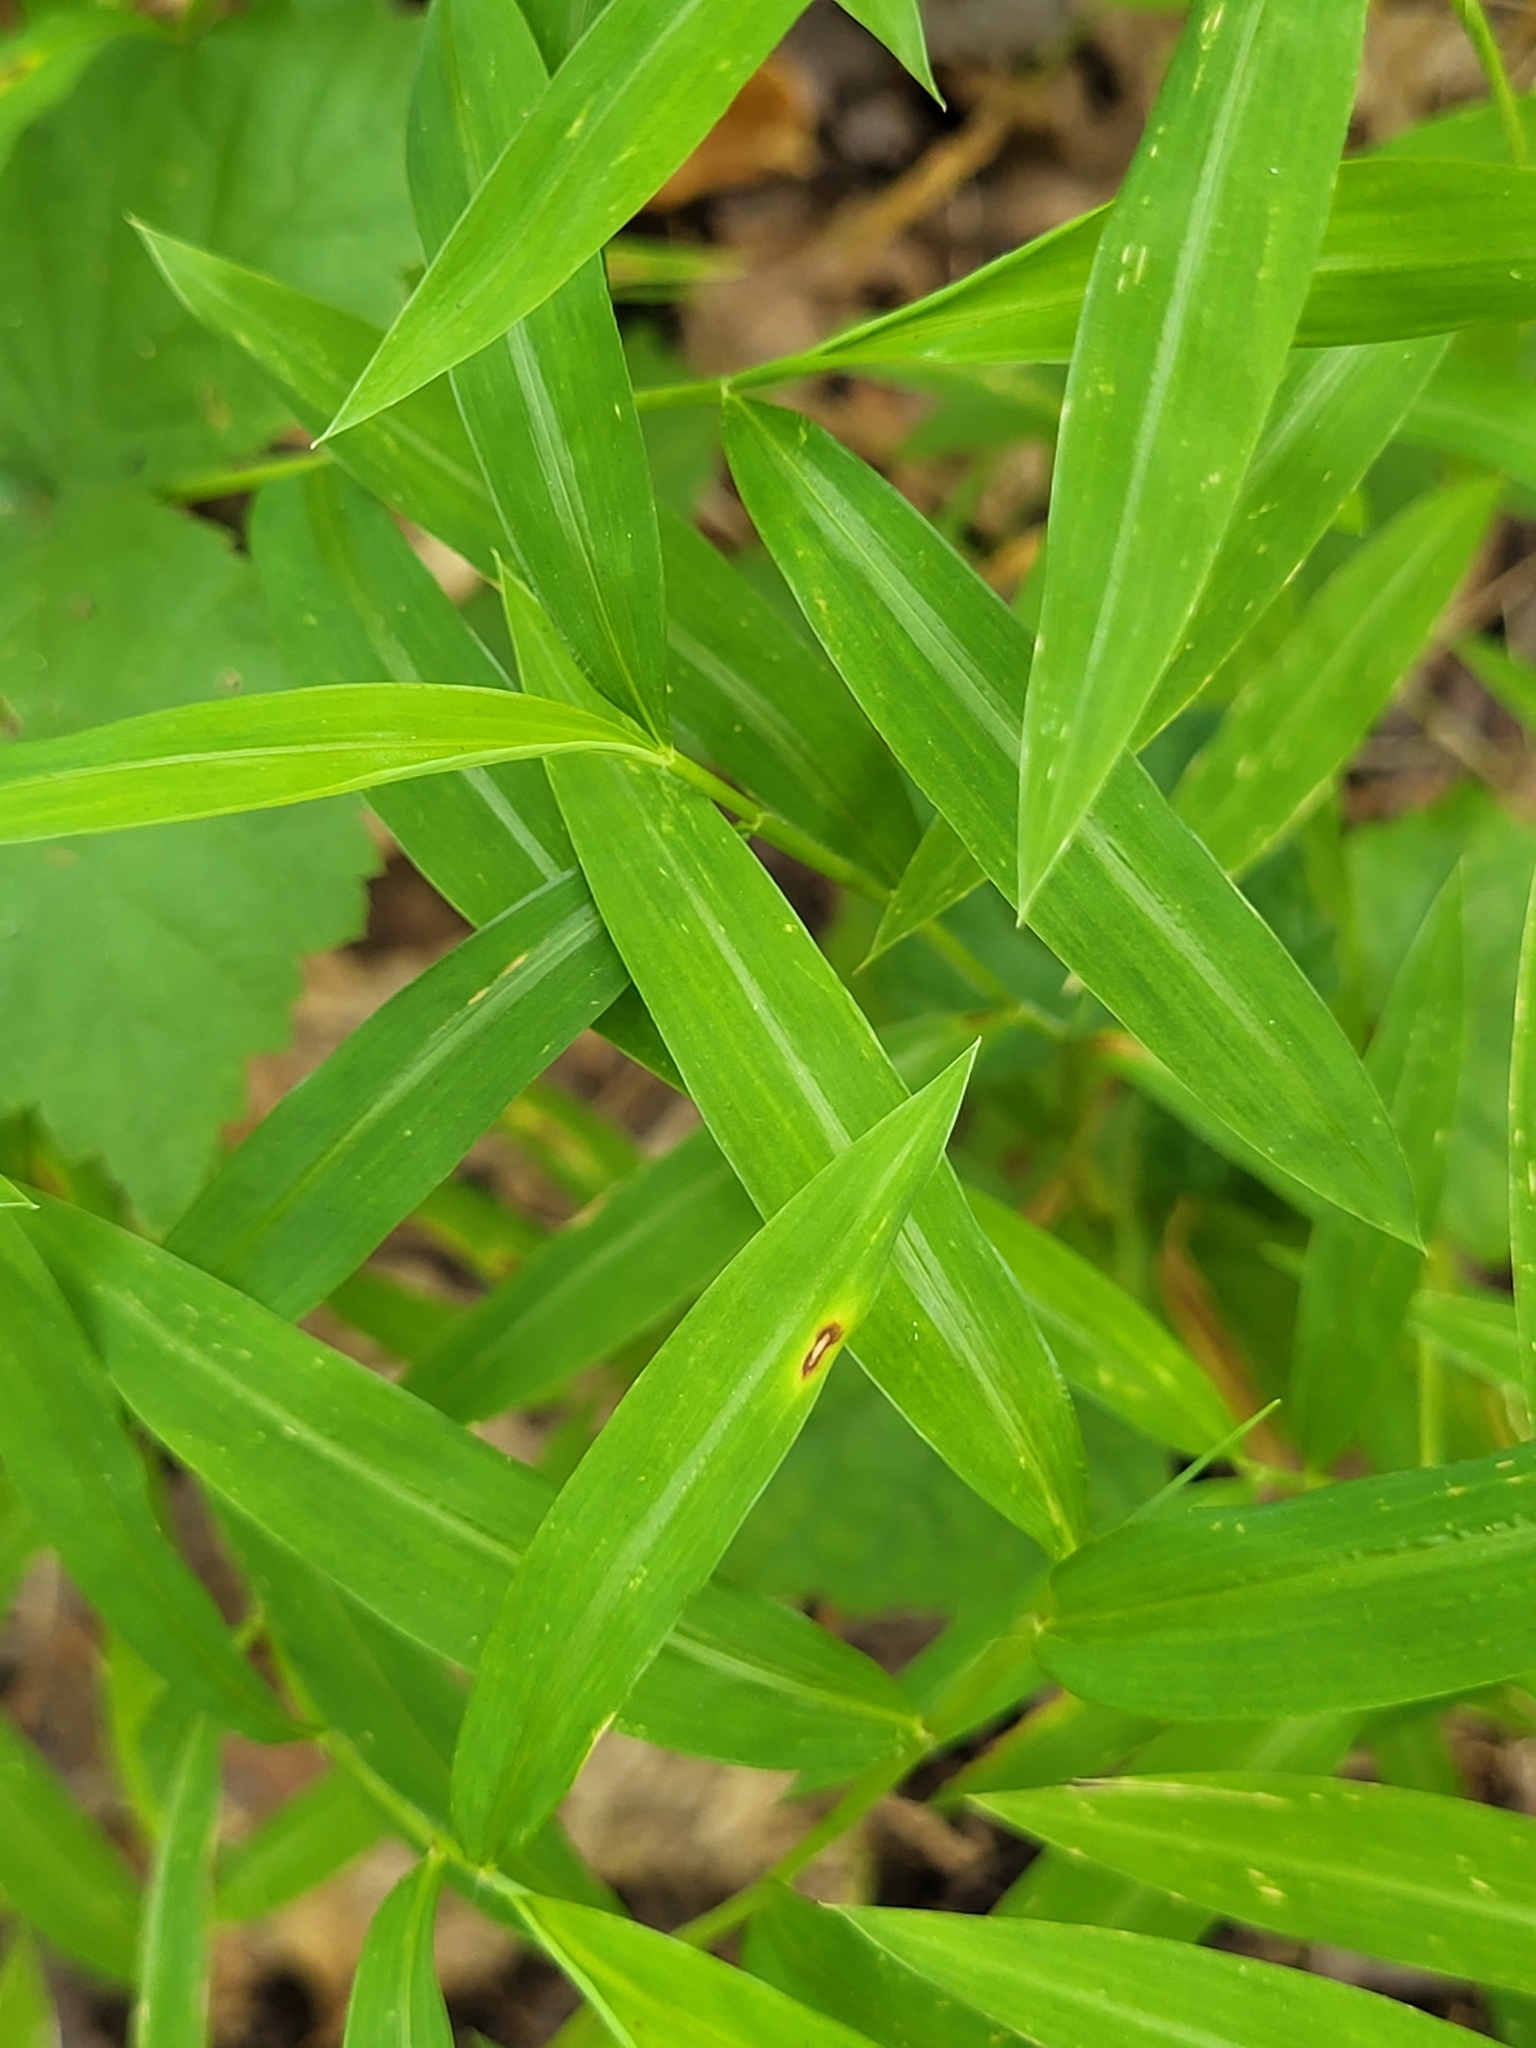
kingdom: Plantae
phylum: Tracheophyta
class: Liliopsida
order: Poales
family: Poaceae
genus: Microstegium
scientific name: Microstegium vimineum
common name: Japanese stiltgrass
